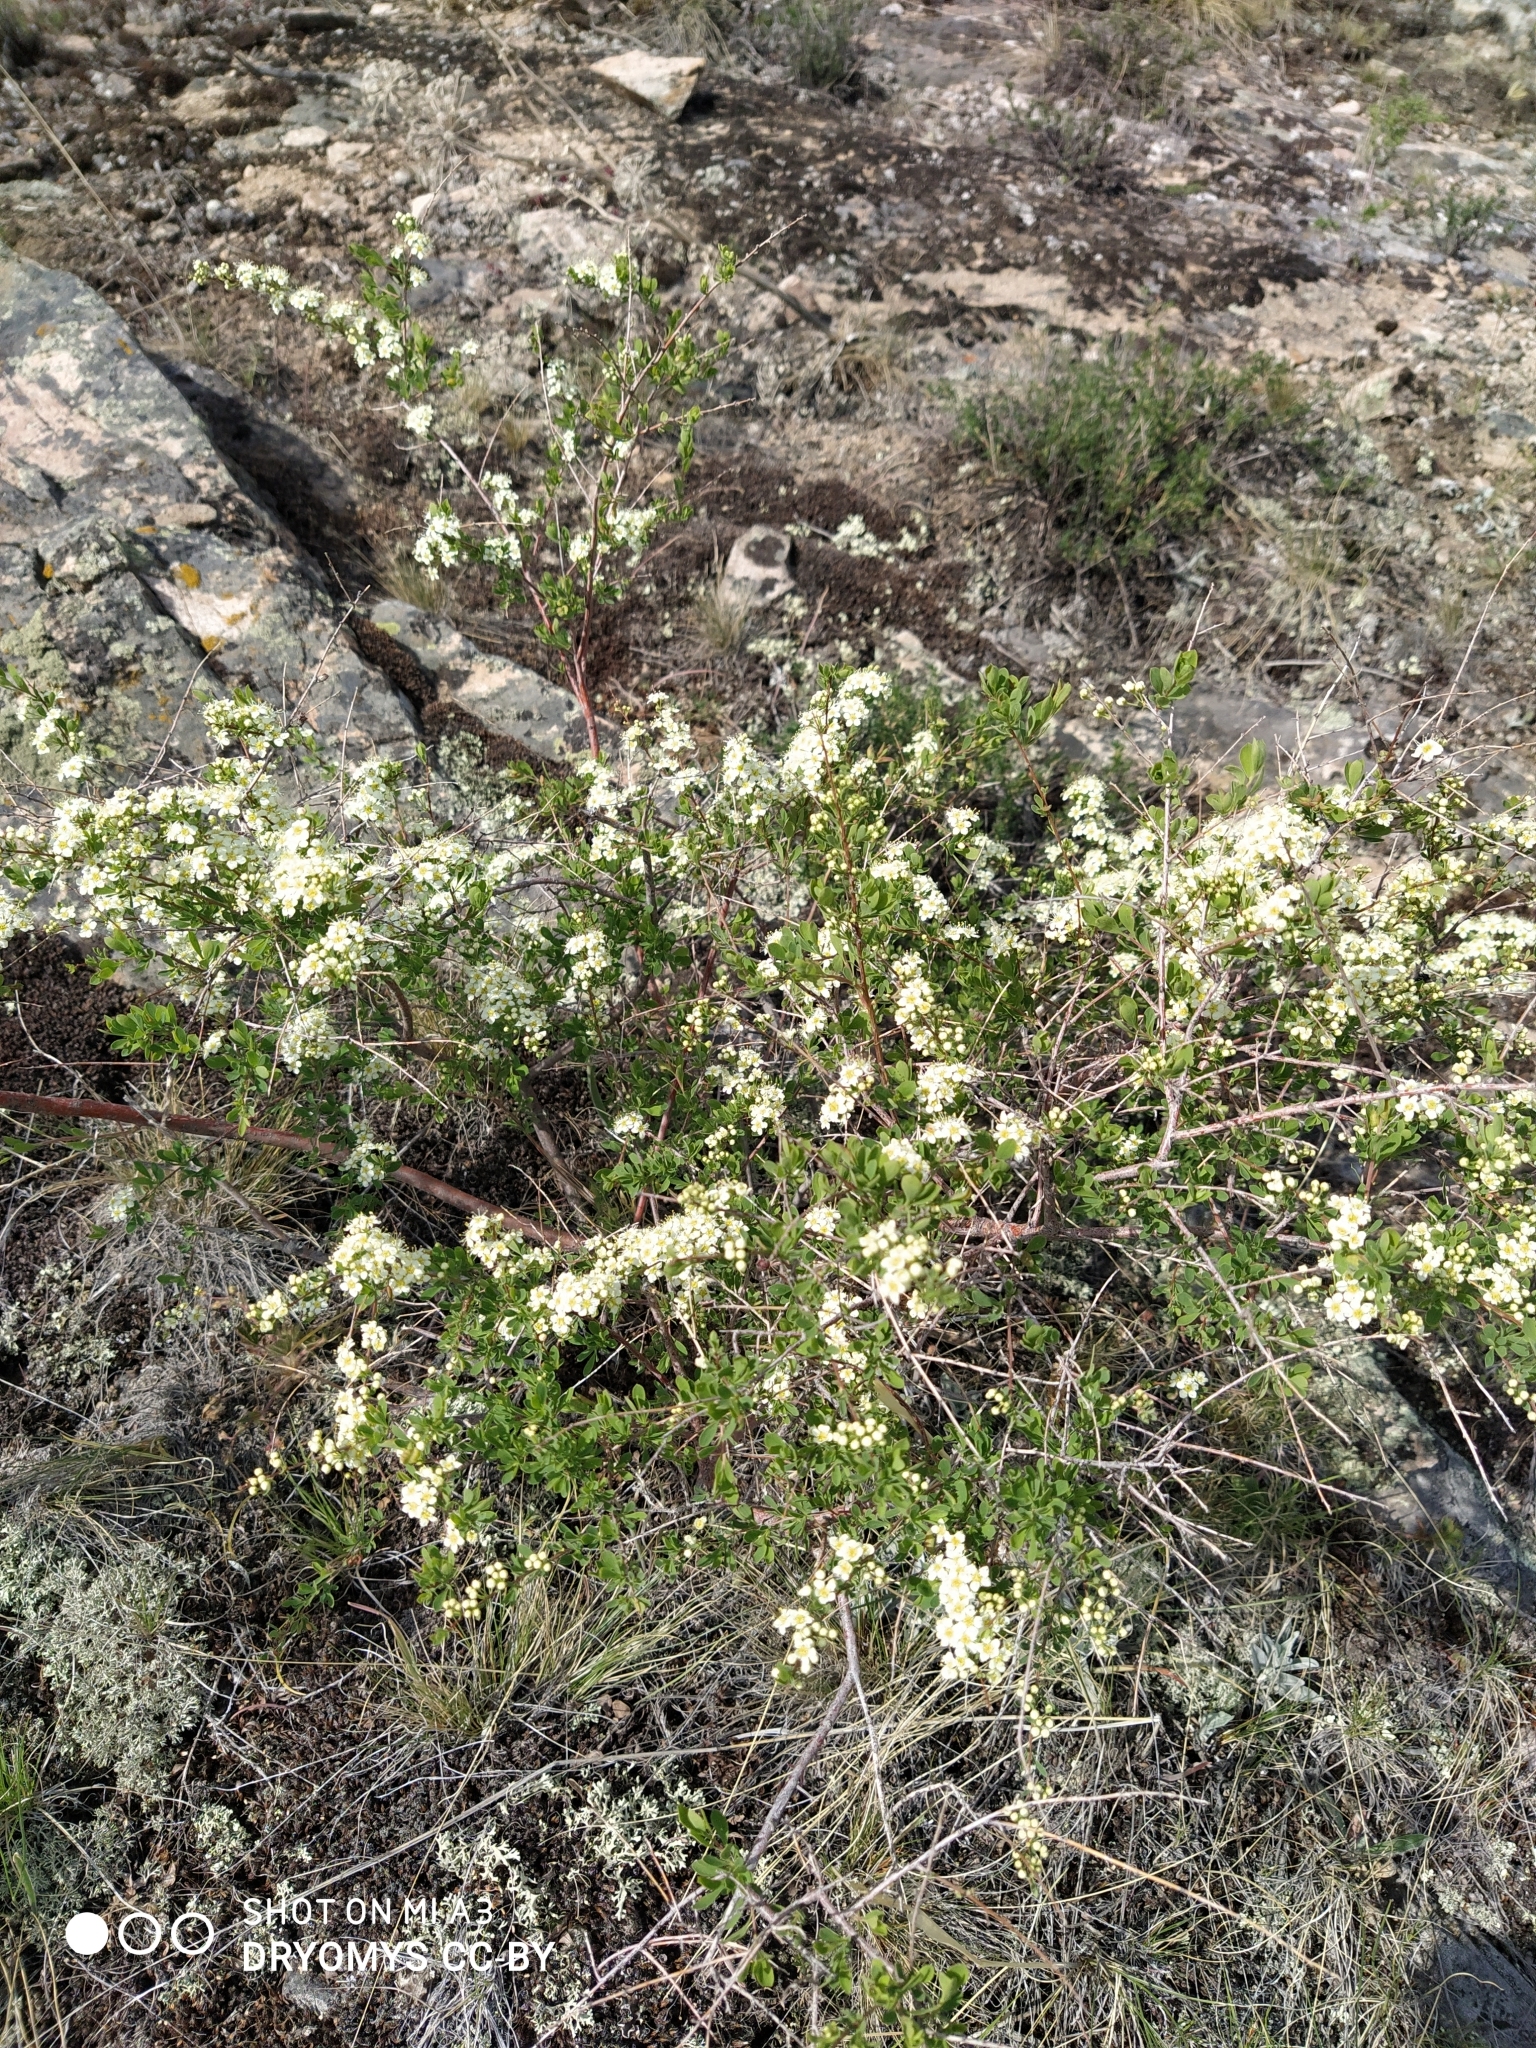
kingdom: Plantae
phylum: Tracheophyta
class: Magnoliopsida
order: Rosales
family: Rosaceae
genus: Spiraea
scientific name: Spiraea hypericifolia
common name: Iberian spirea
